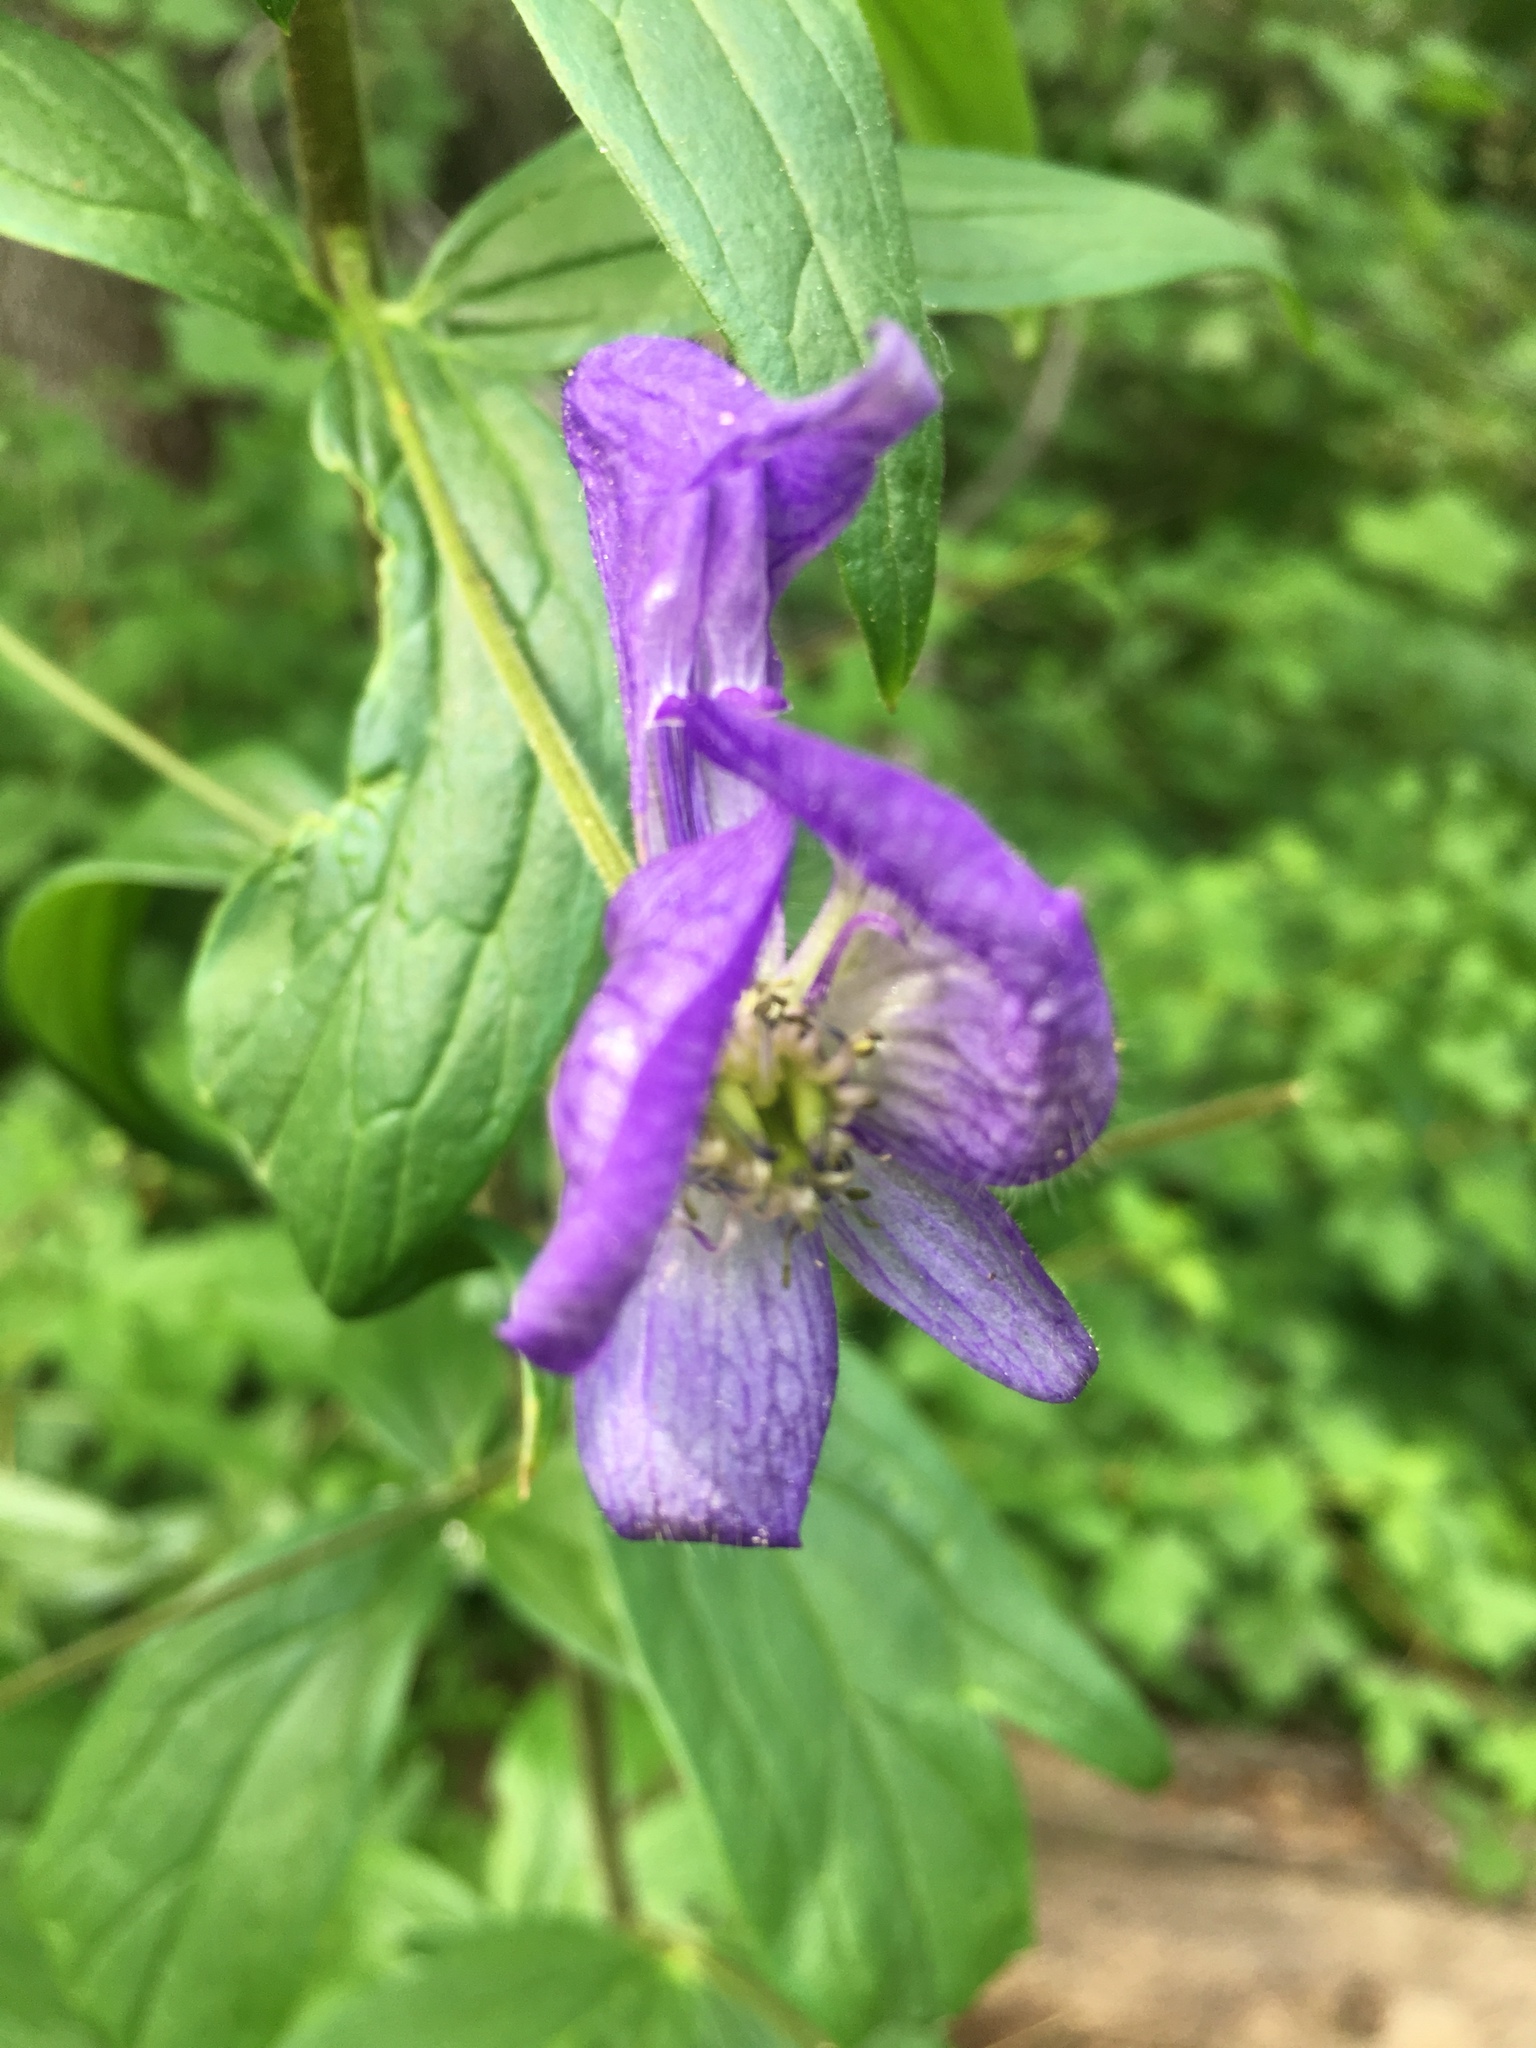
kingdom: Plantae
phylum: Tracheophyta
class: Magnoliopsida
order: Ranunculales
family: Ranunculaceae
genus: Aconitum
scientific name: Aconitum columbianum
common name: Columbia aconite
